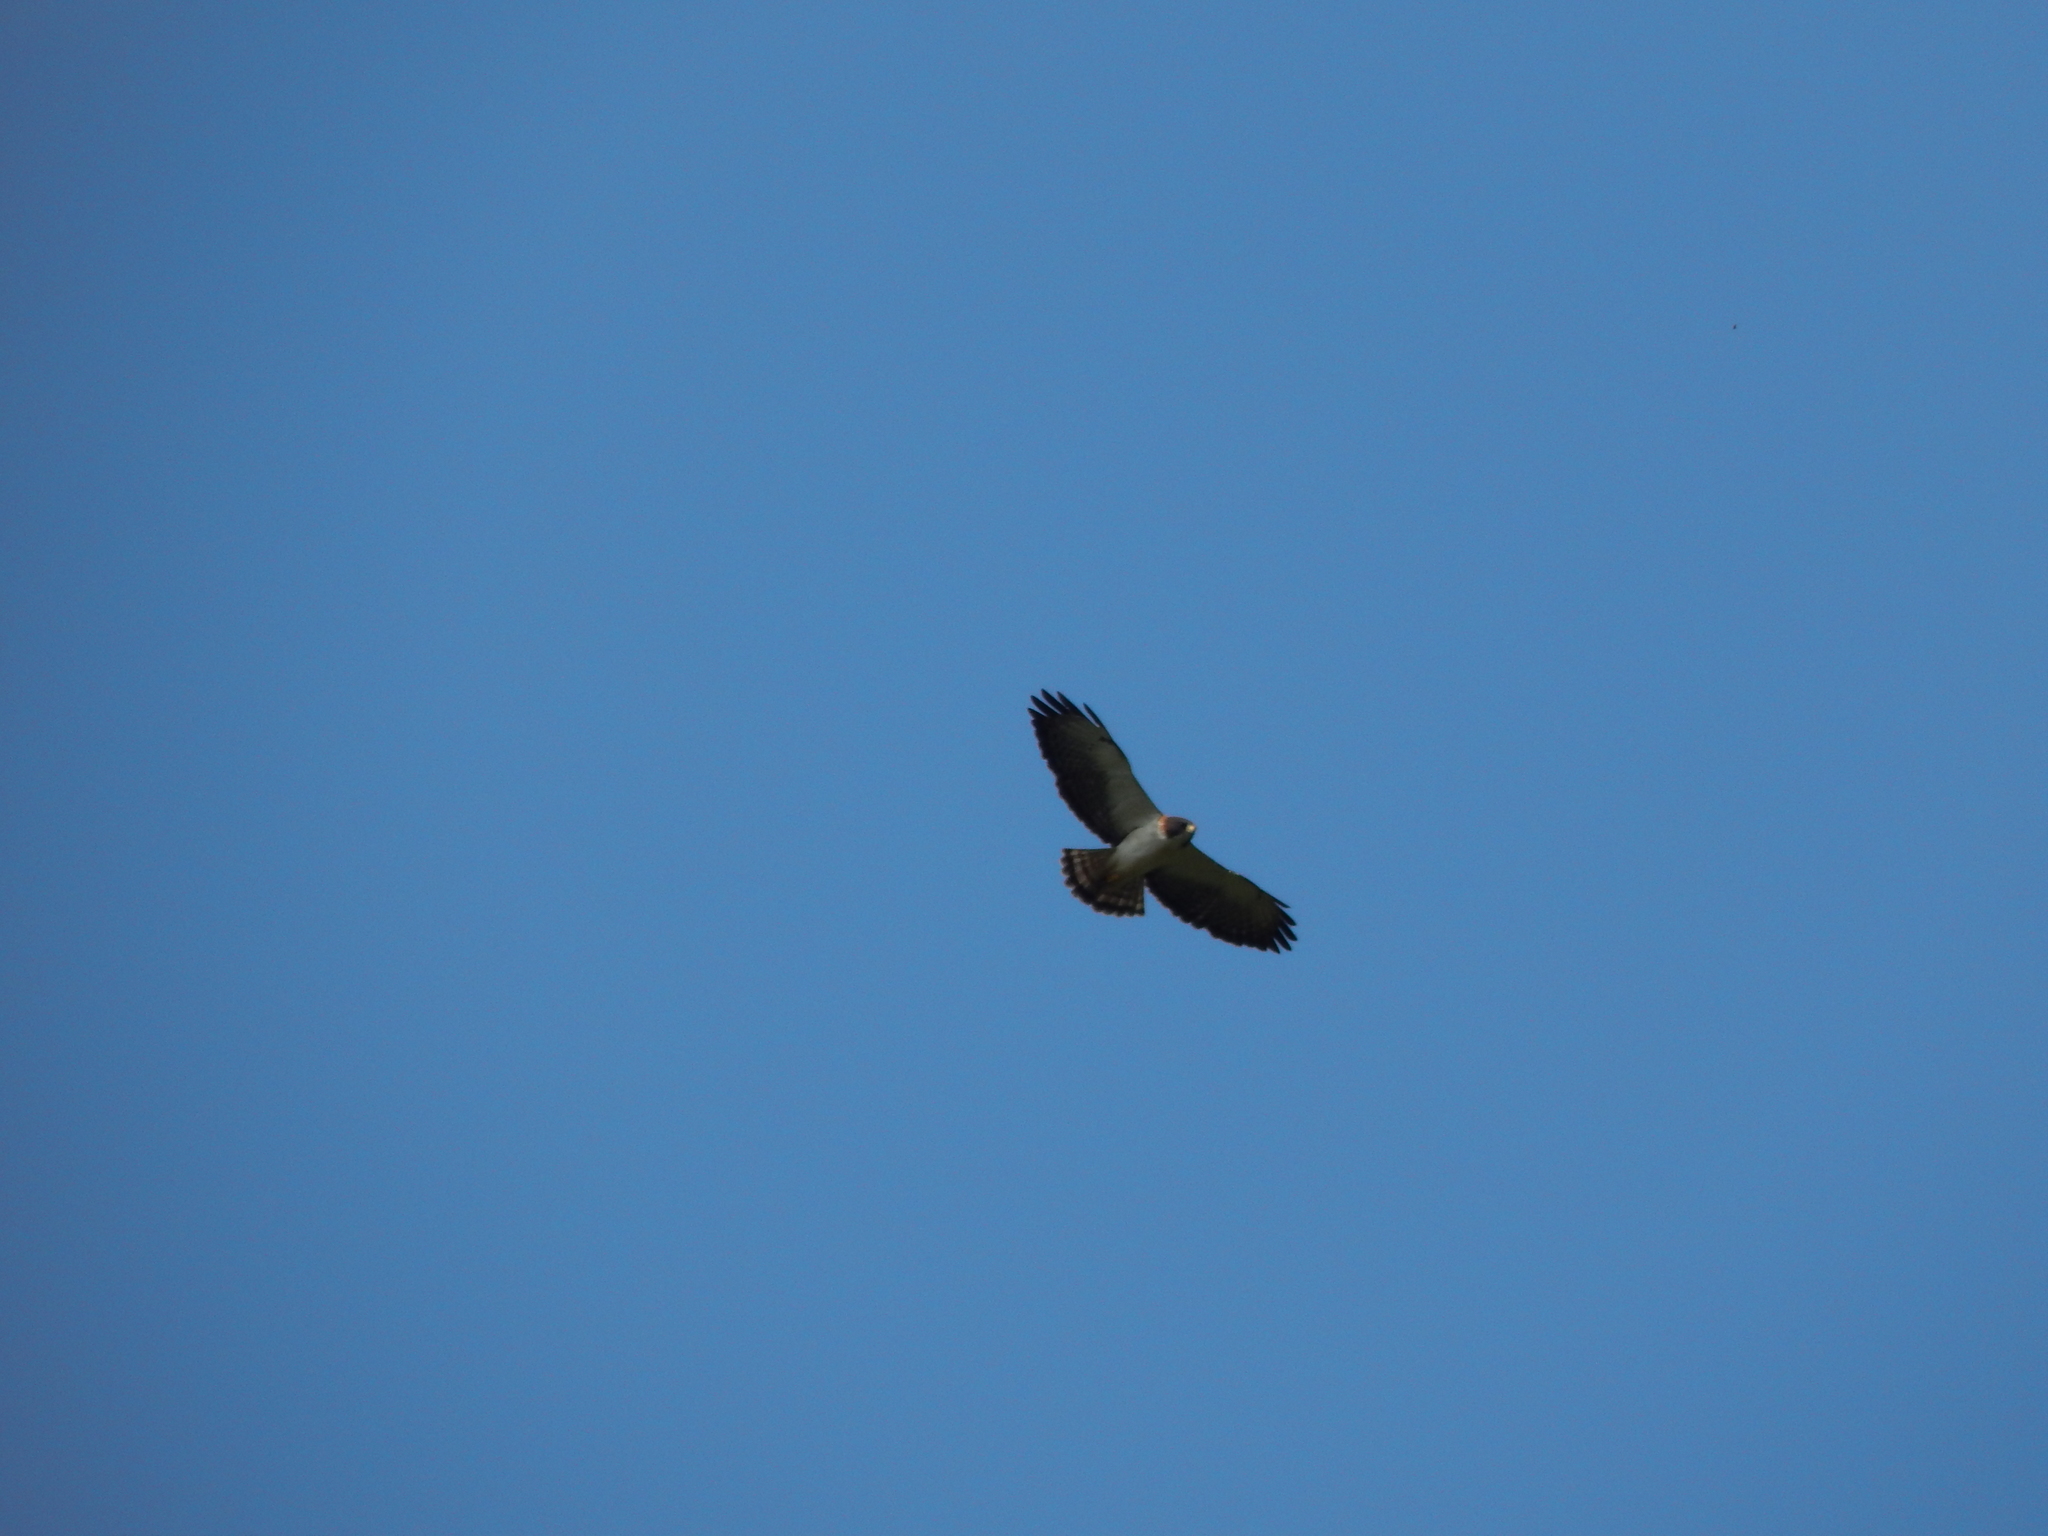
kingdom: Animalia
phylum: Chordata
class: Aves
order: Accipitriformes
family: Accipitridae
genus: Buteo
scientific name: Buteo swainsoni
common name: Swainson's hawk
